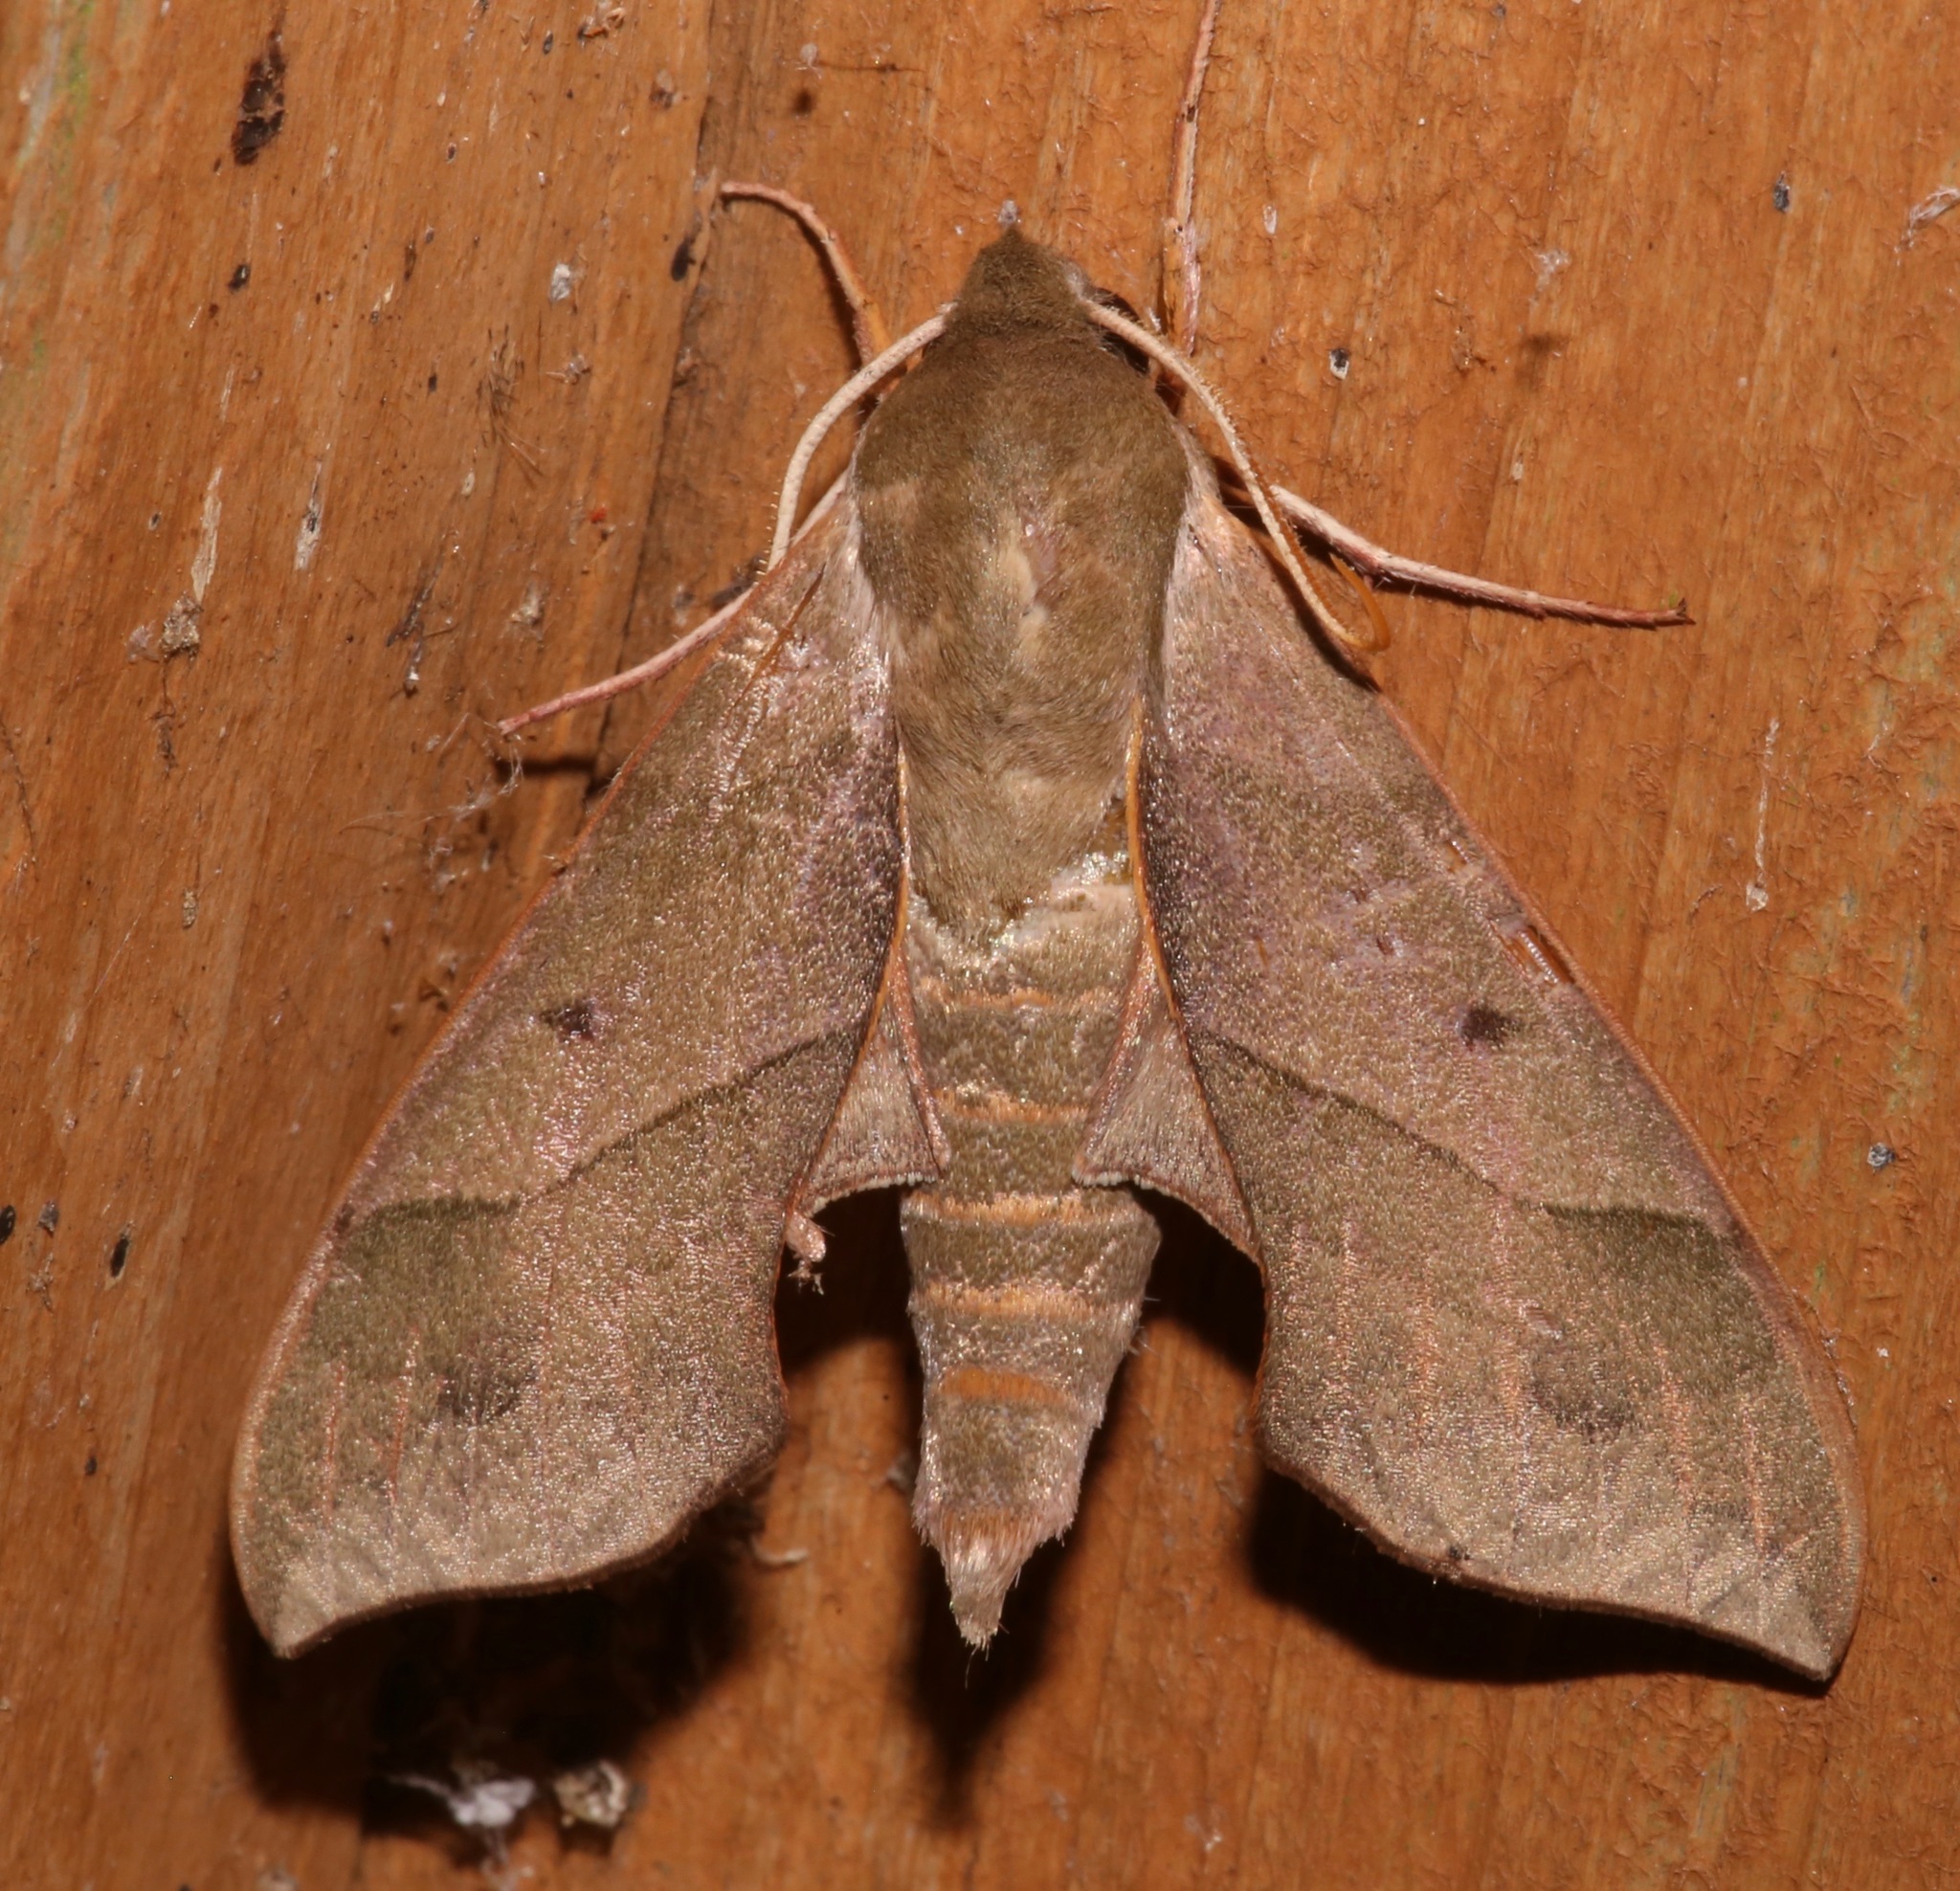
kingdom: Animalia
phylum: Arthropoda
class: Insecta
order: Lepidoptera
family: Sphingidae
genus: Darapsa
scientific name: Darapsa myron
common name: Hog sphinx
